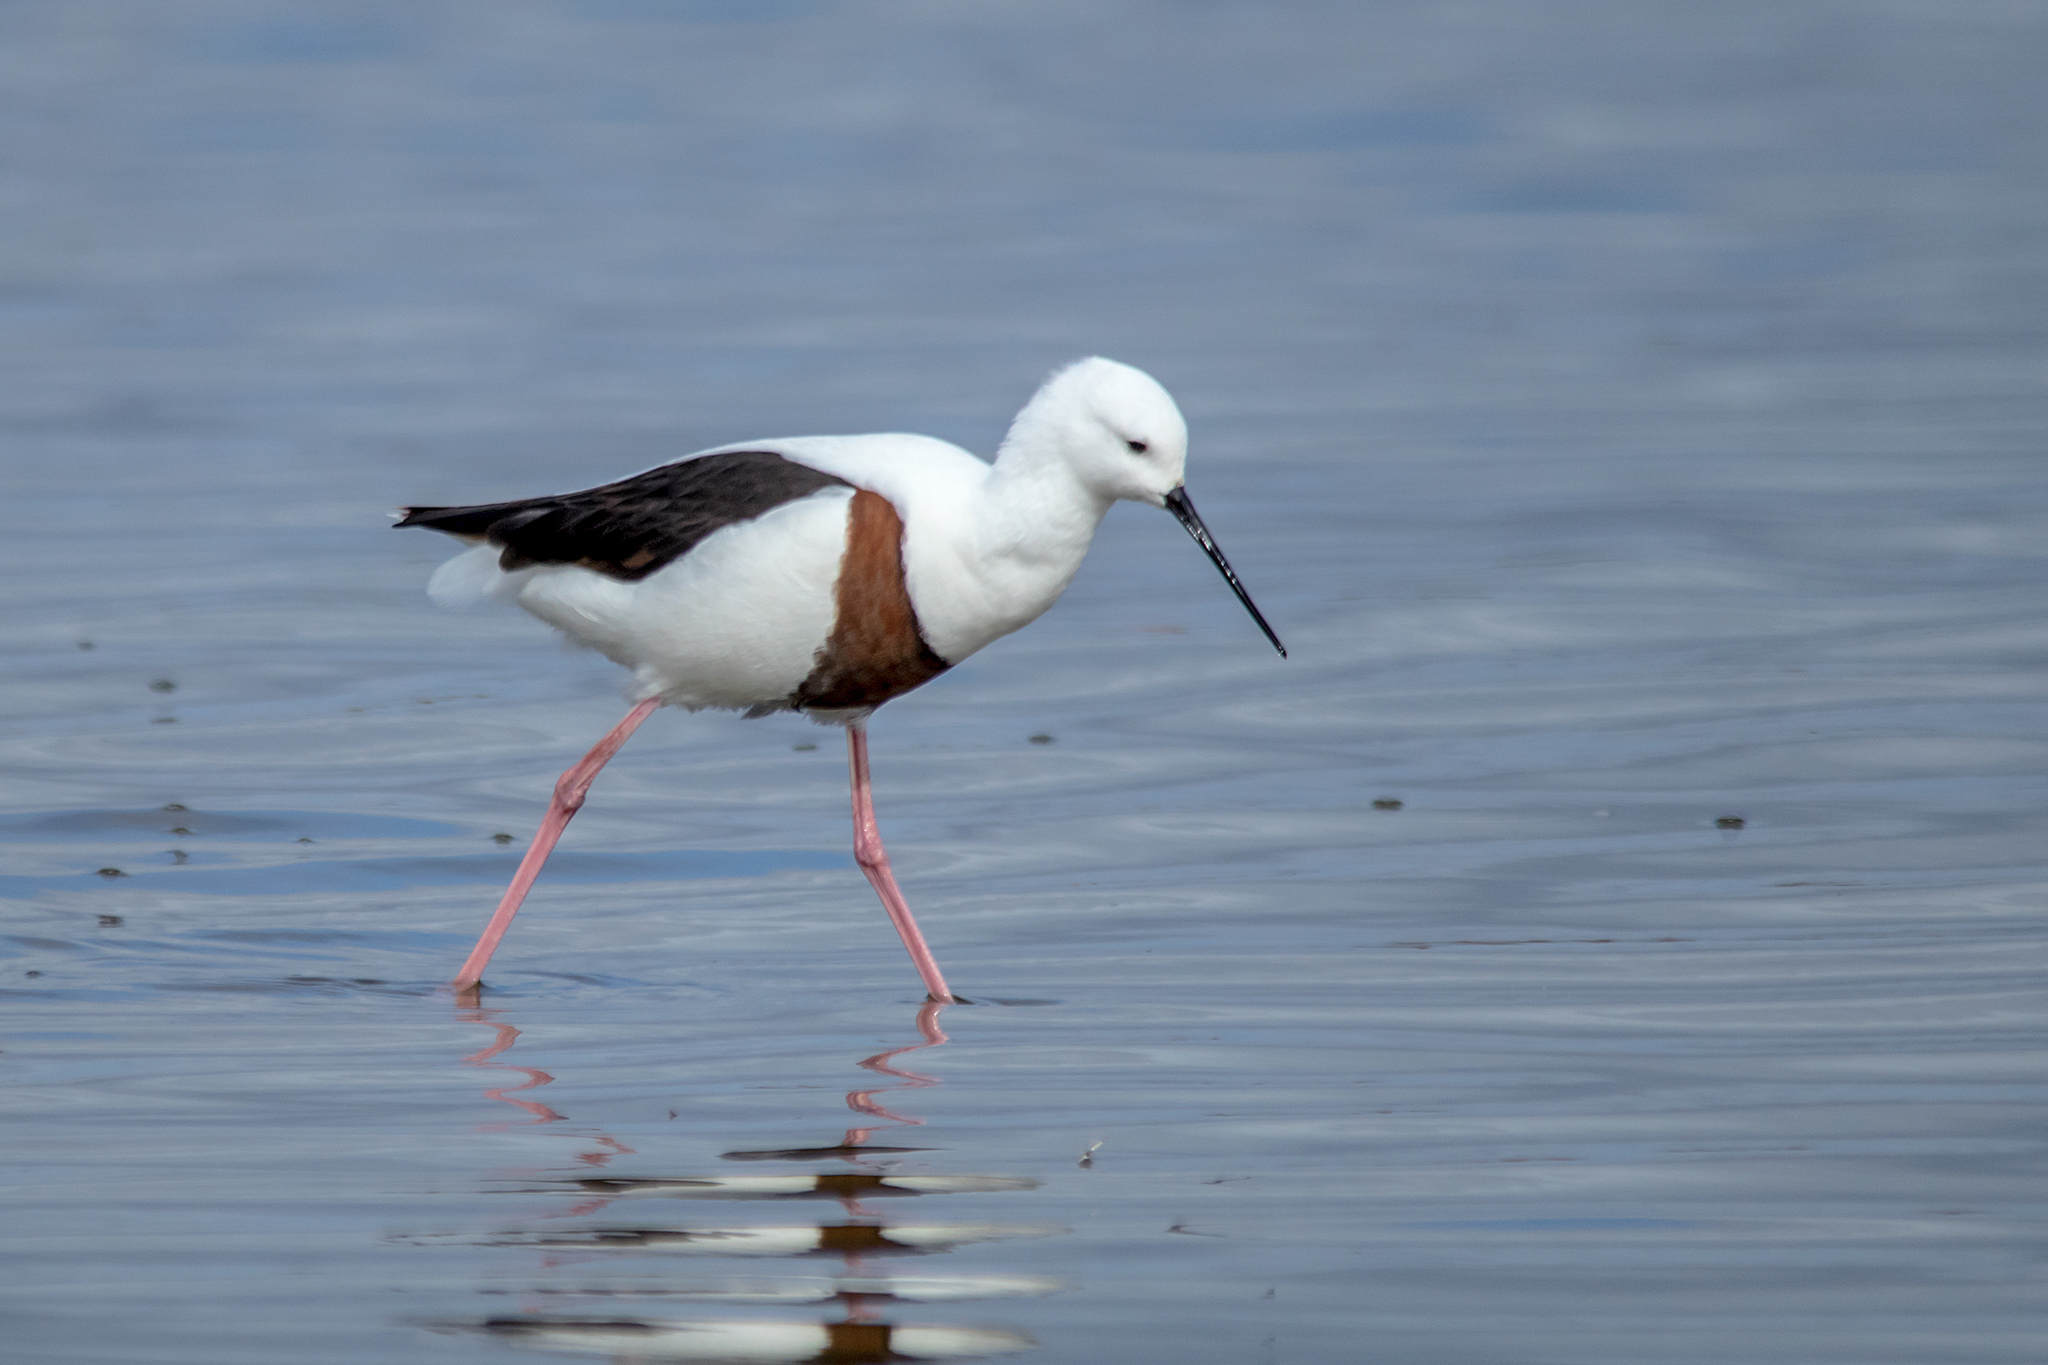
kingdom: Animalia
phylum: Chordata
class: Aves
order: Charadriiformes
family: Recurvirostridae
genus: Cladorhynchus
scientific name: Cladorhynchus leucocephalus
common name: Banded stilt
